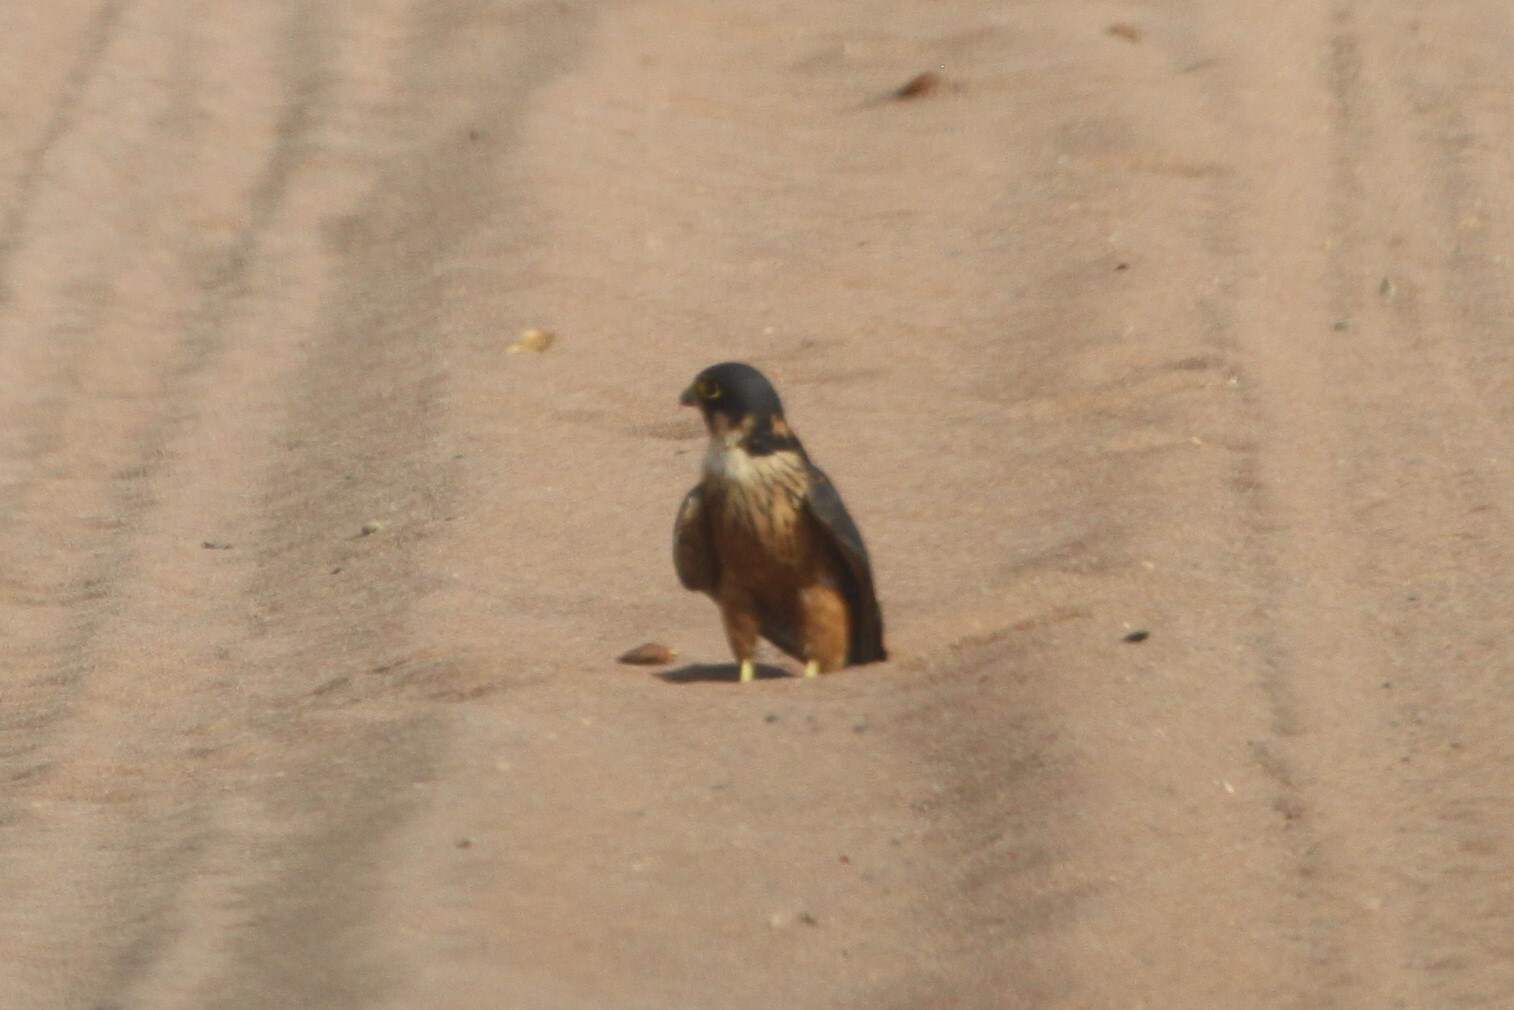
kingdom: Animalia
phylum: Chordata
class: Aves
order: Falconiformes
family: Falconidae
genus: Falco
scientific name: Falco cuvierii
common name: African hobby
